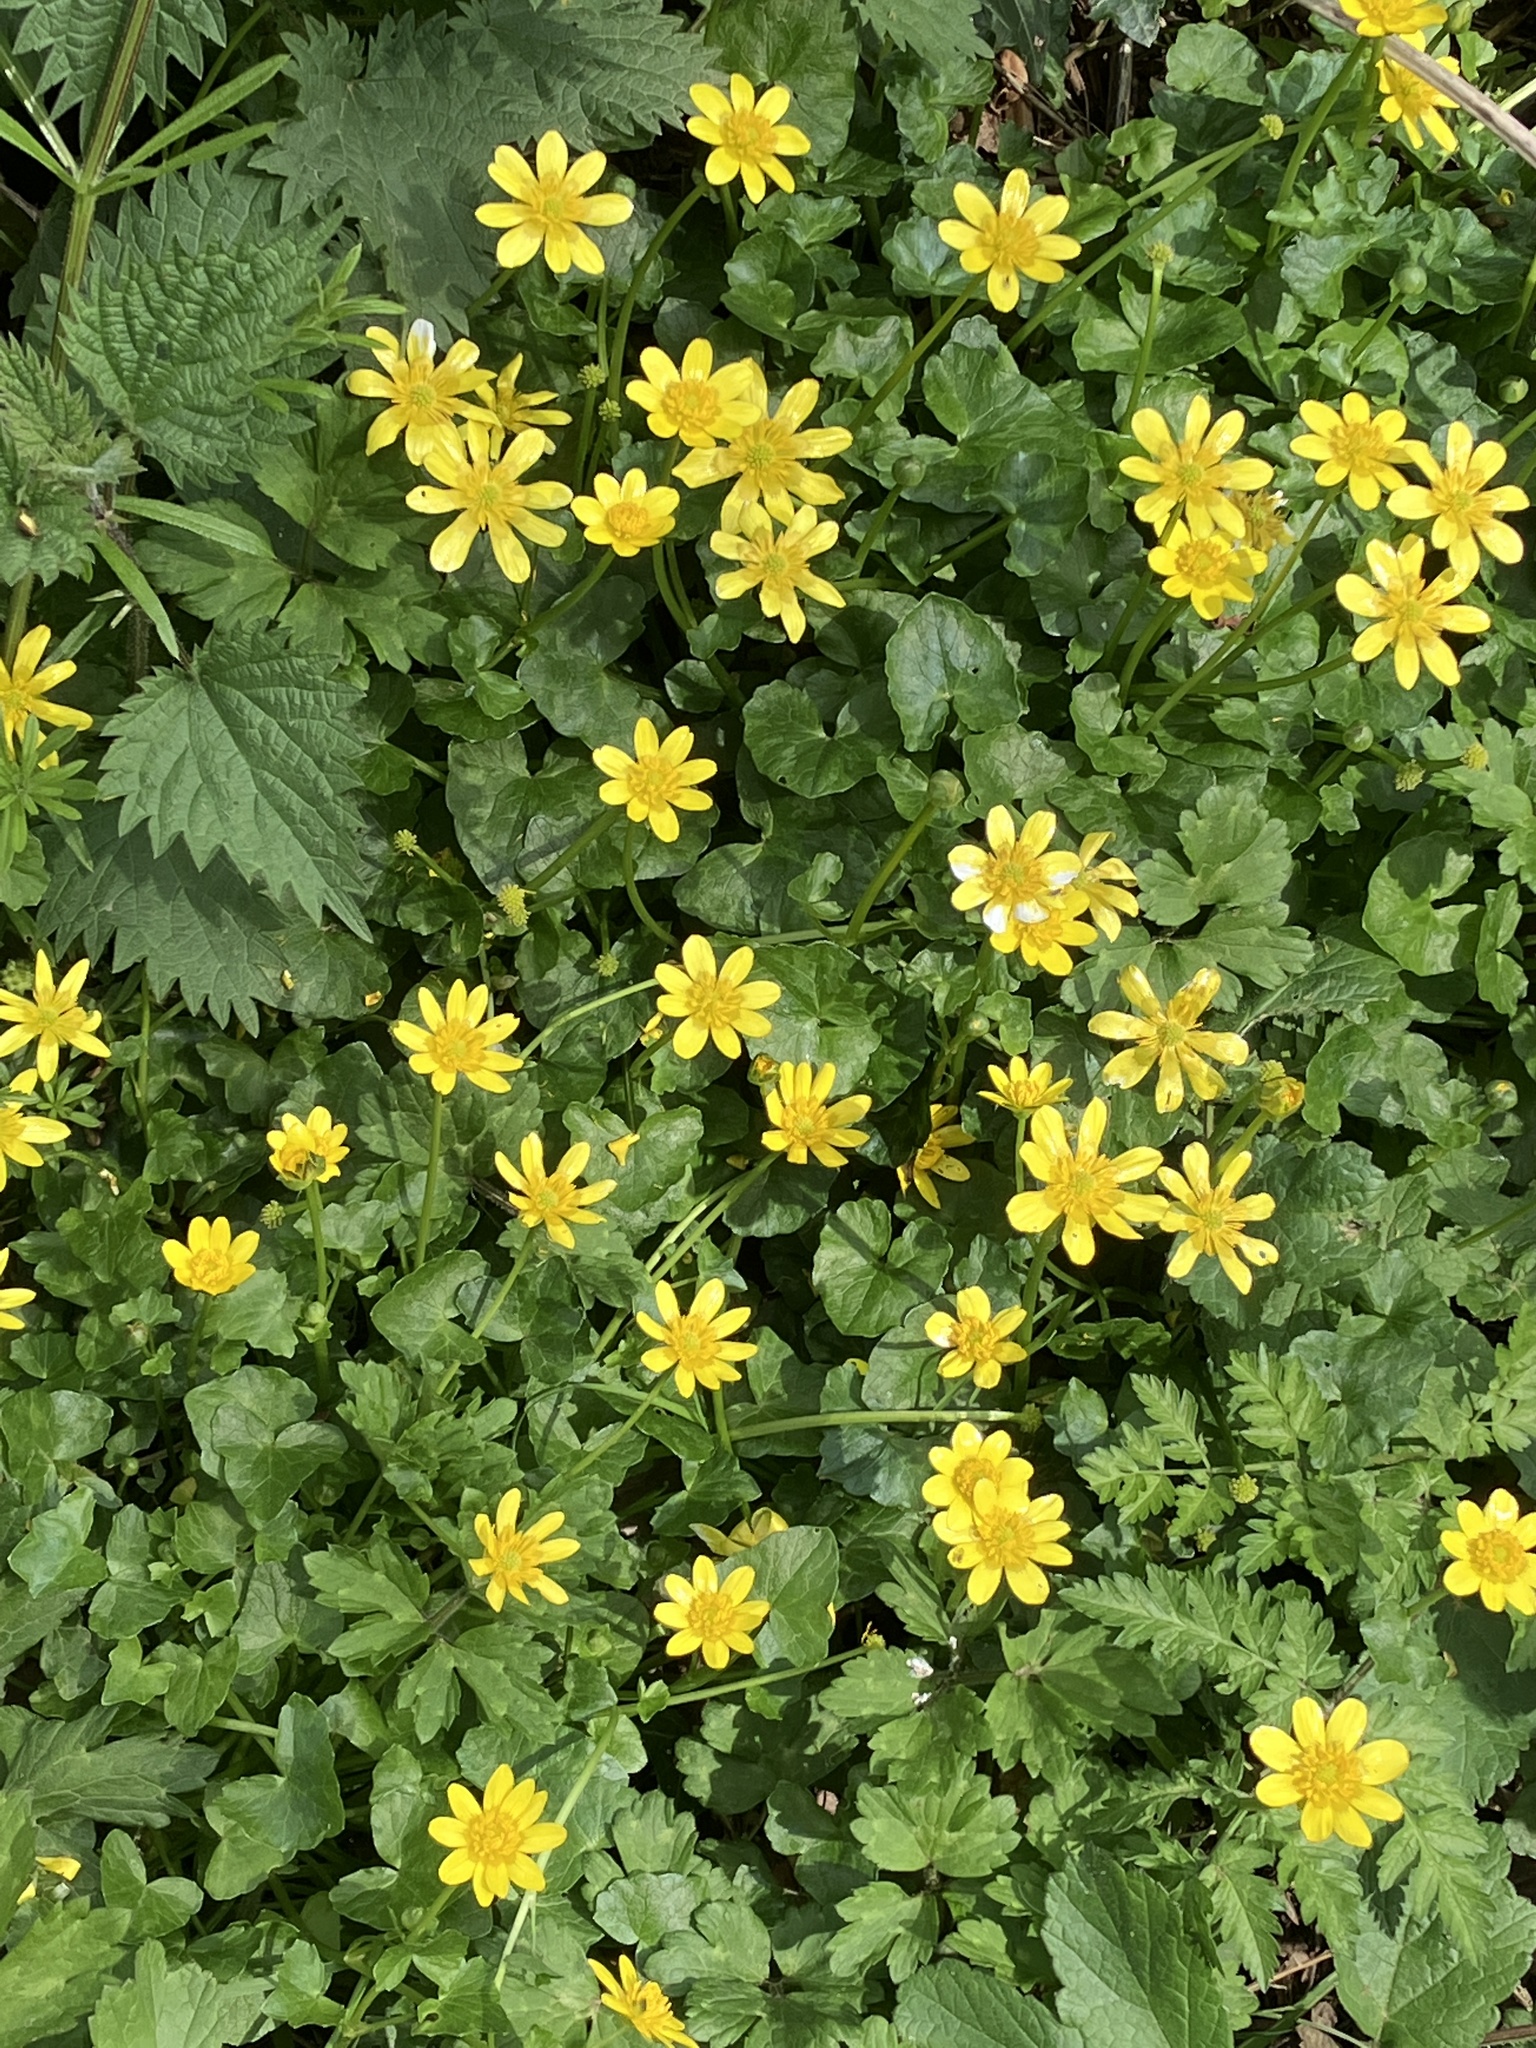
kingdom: Plantae
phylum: Tracheophyta
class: Magnoliopsida
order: Ranunculales
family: Ranunculaceae
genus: Ficaria
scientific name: Ficaria verna
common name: Lesser celandine
